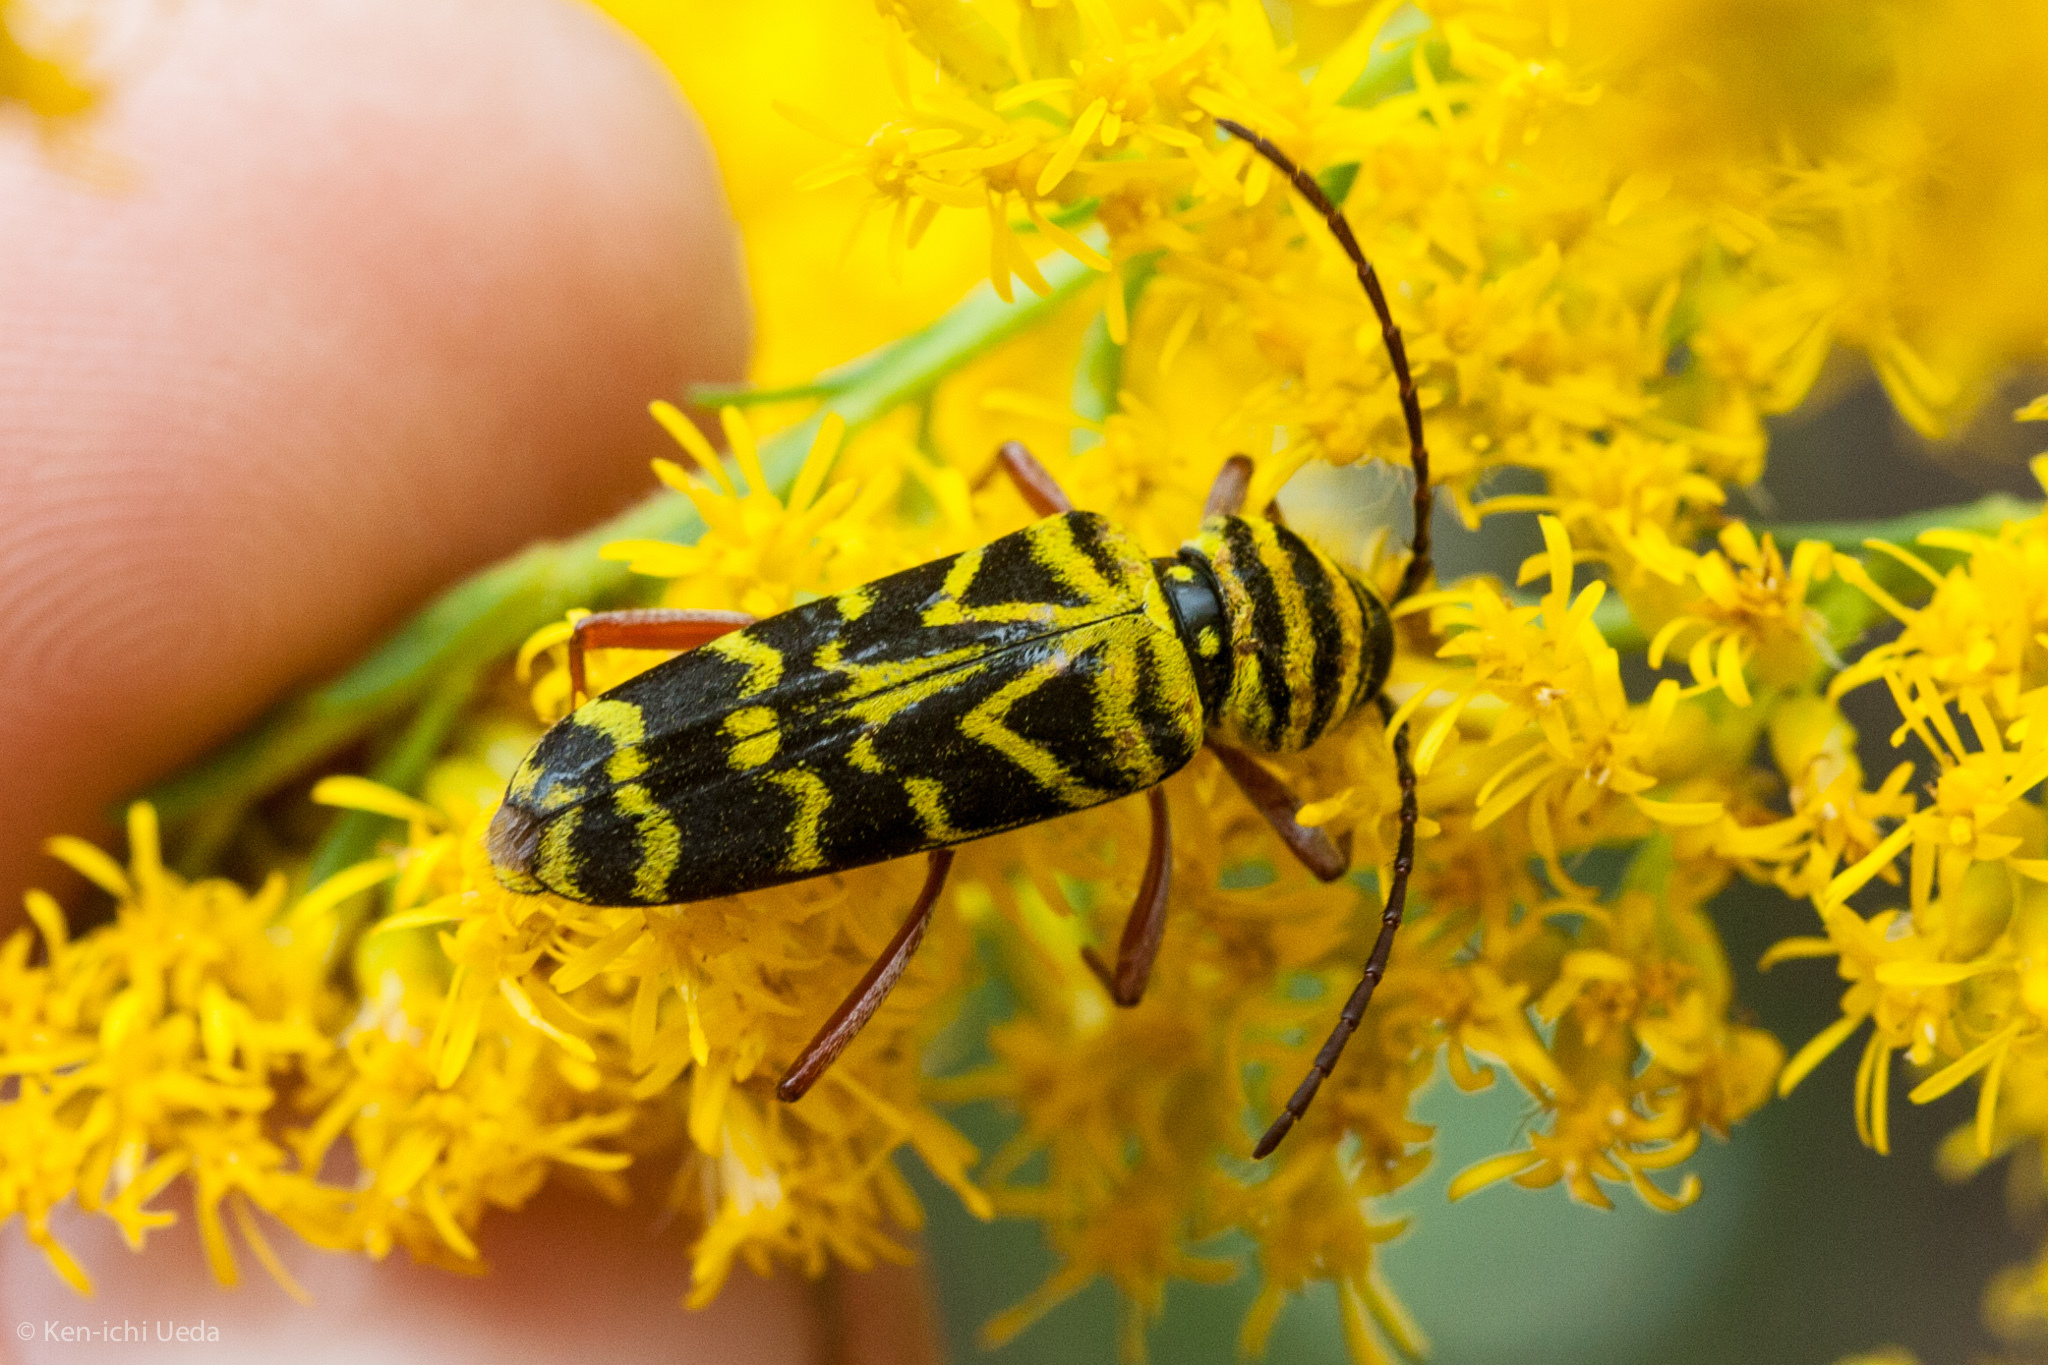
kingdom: Animalia
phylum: Arthropoda
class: Insecta
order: Coleoptera
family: Cerambycidae
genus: Megacyllene
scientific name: Megacyllene robiniae
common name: Locust borer
